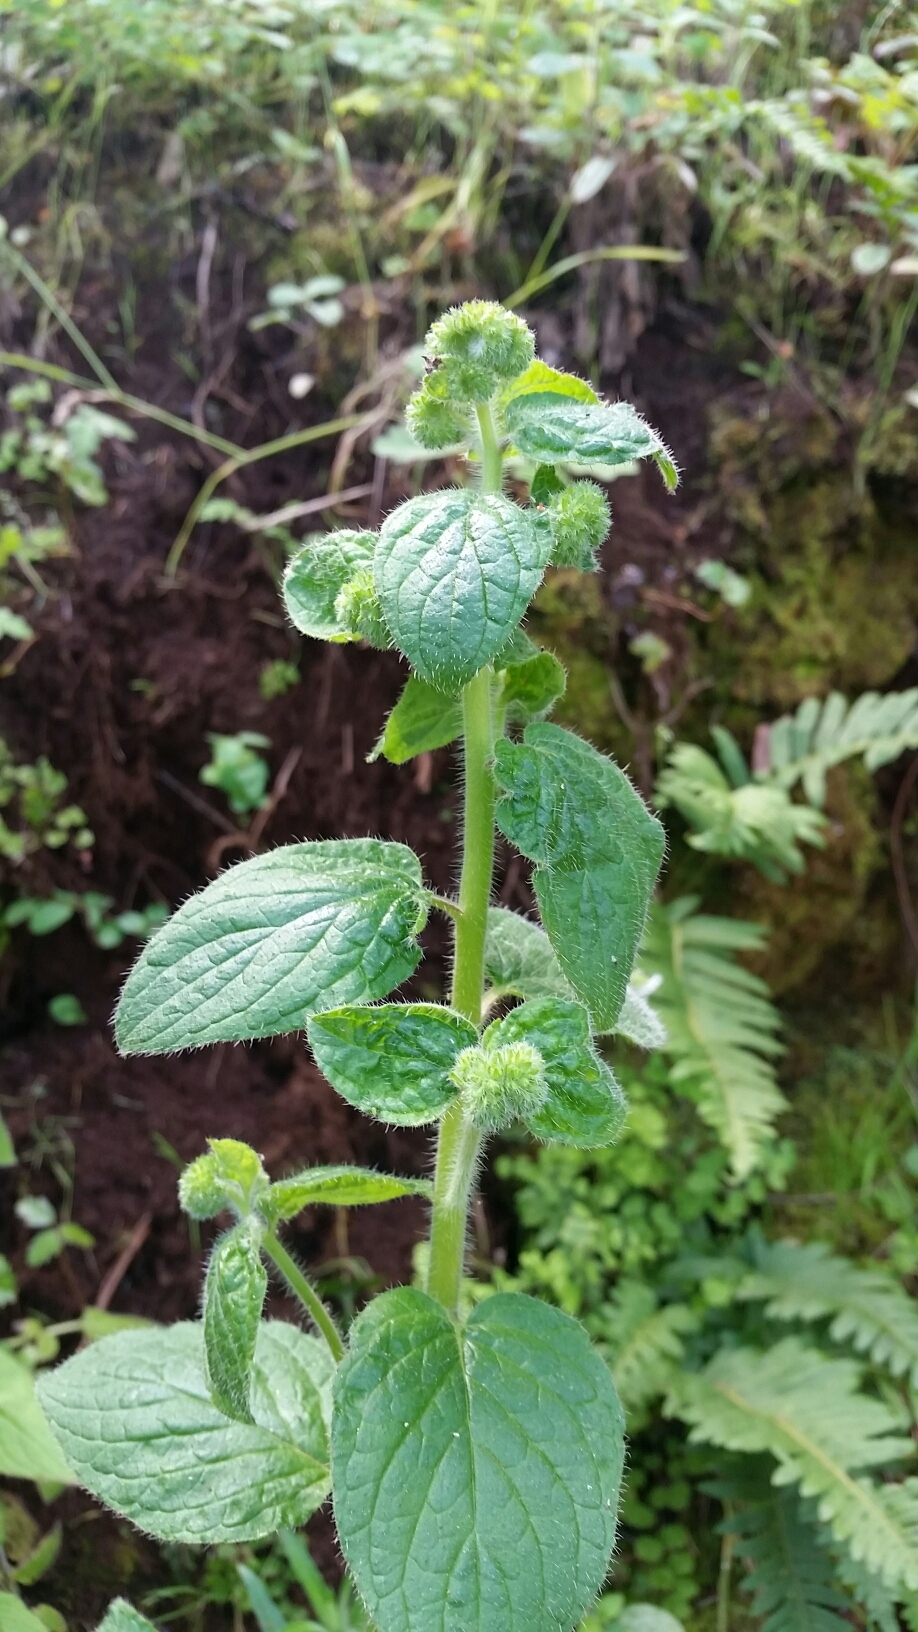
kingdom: Plantae
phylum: Tracheophyta
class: Magnoliopsida
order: Boraginales
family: Hydrophyllaceae
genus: Phacelia
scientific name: Phacelia nemoralis
